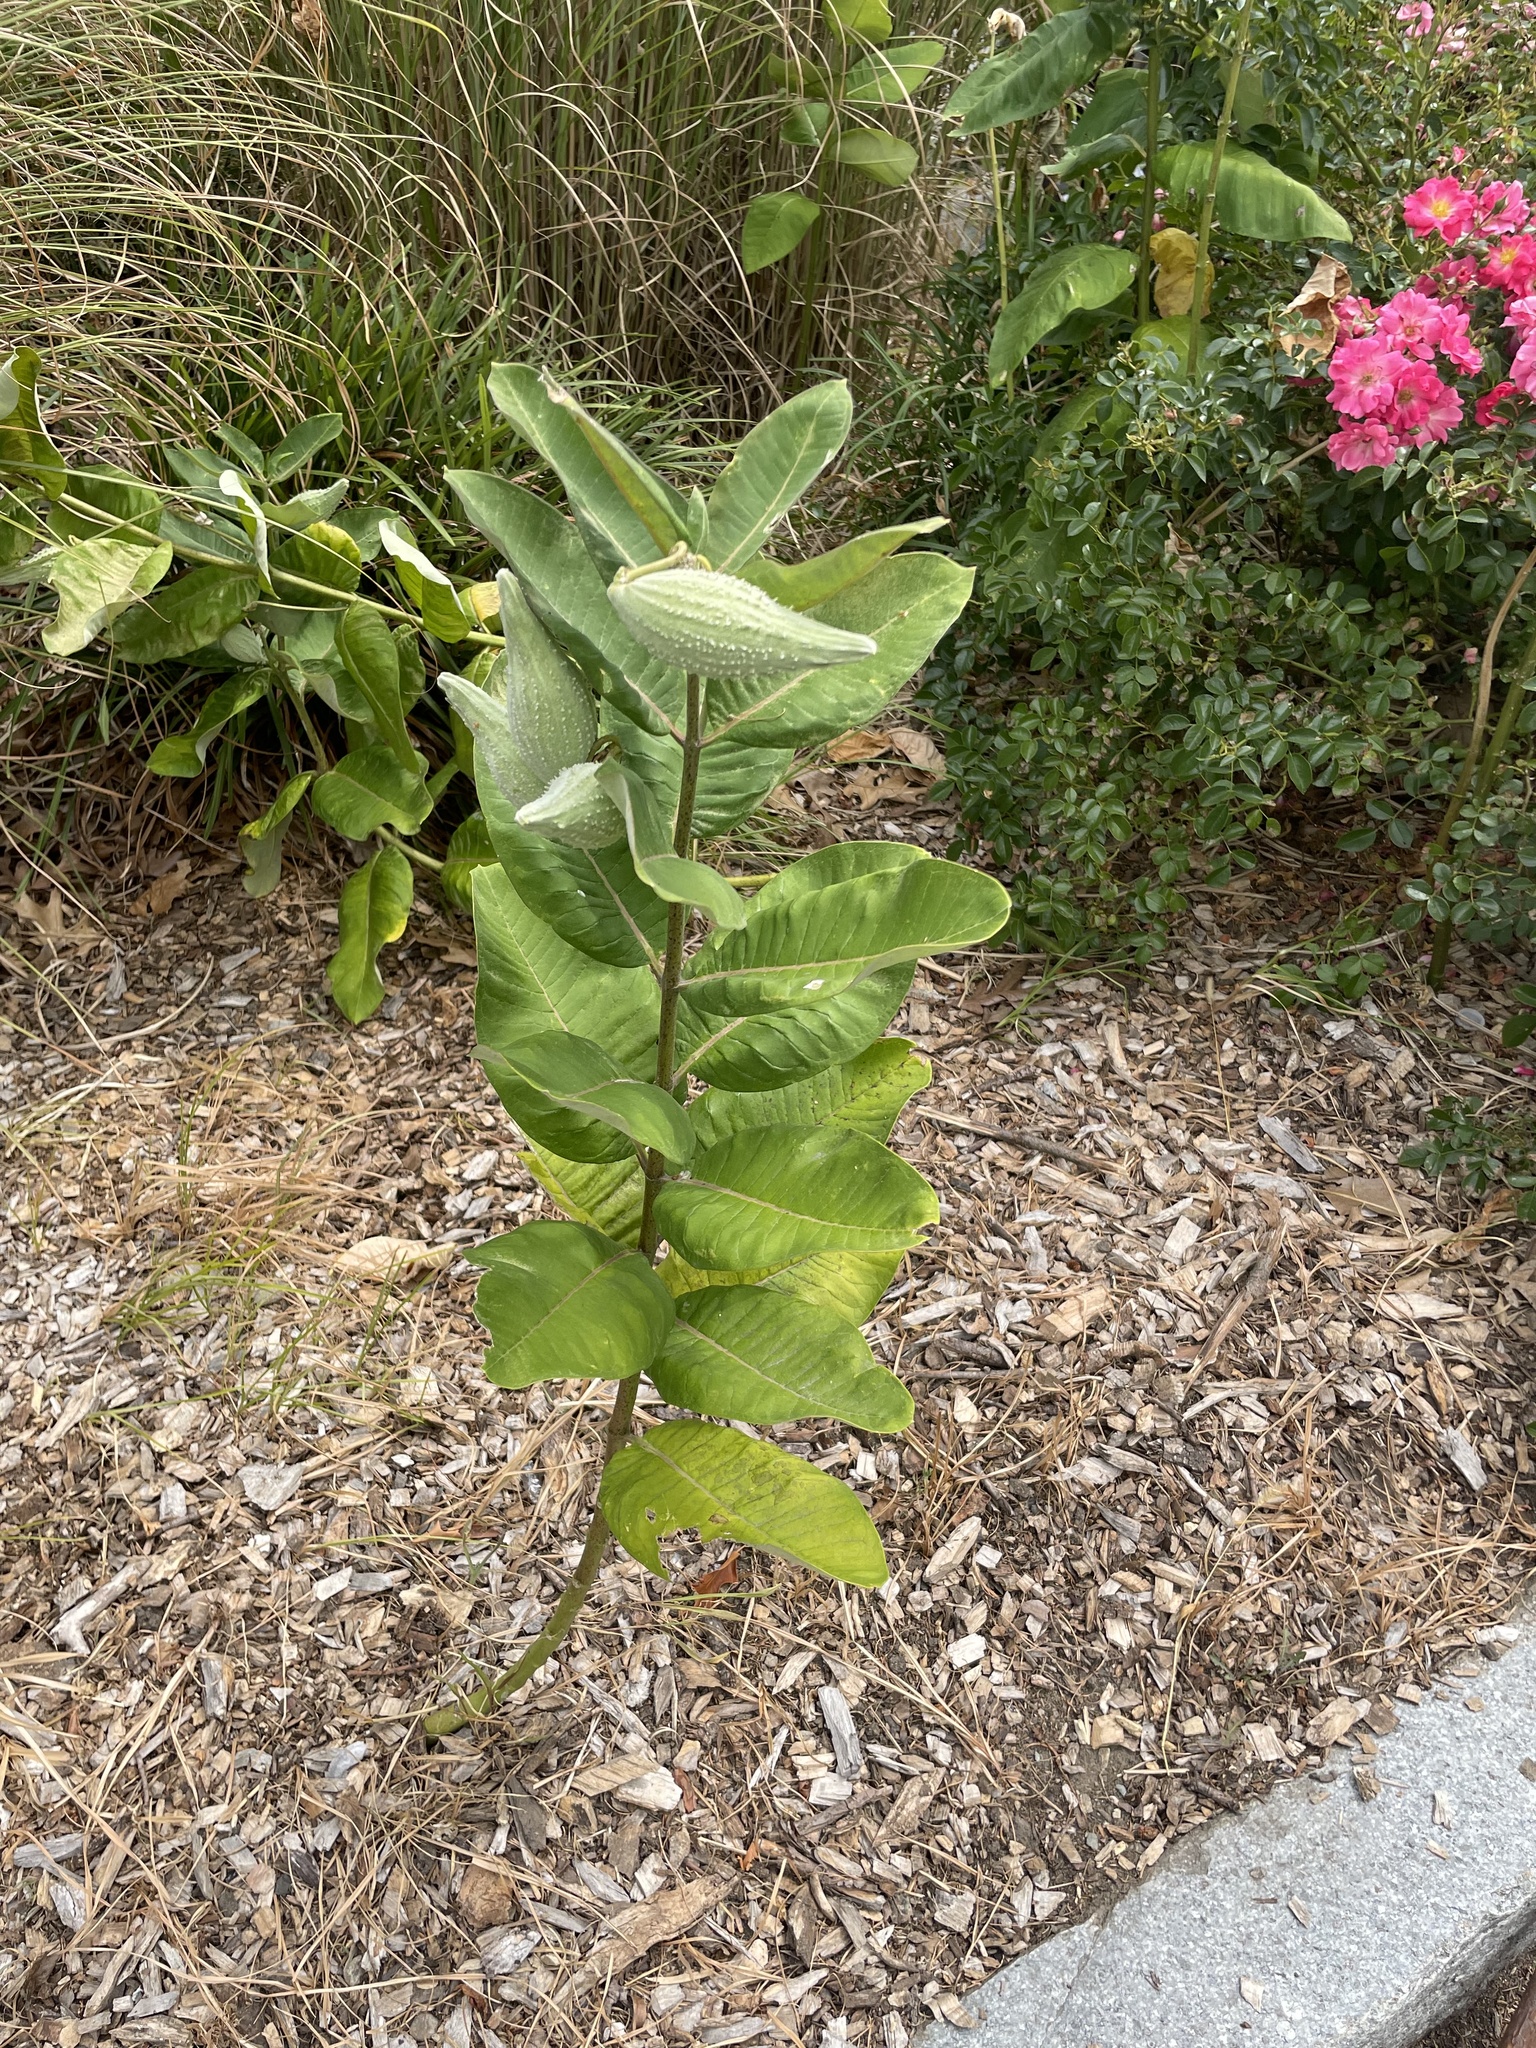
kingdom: Plantae
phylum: Tracheophyta
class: Magnoliopsida
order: Gentianales
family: Apocynaceae
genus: Asclepias
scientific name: Asclepias syriaca
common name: Common milkweed
